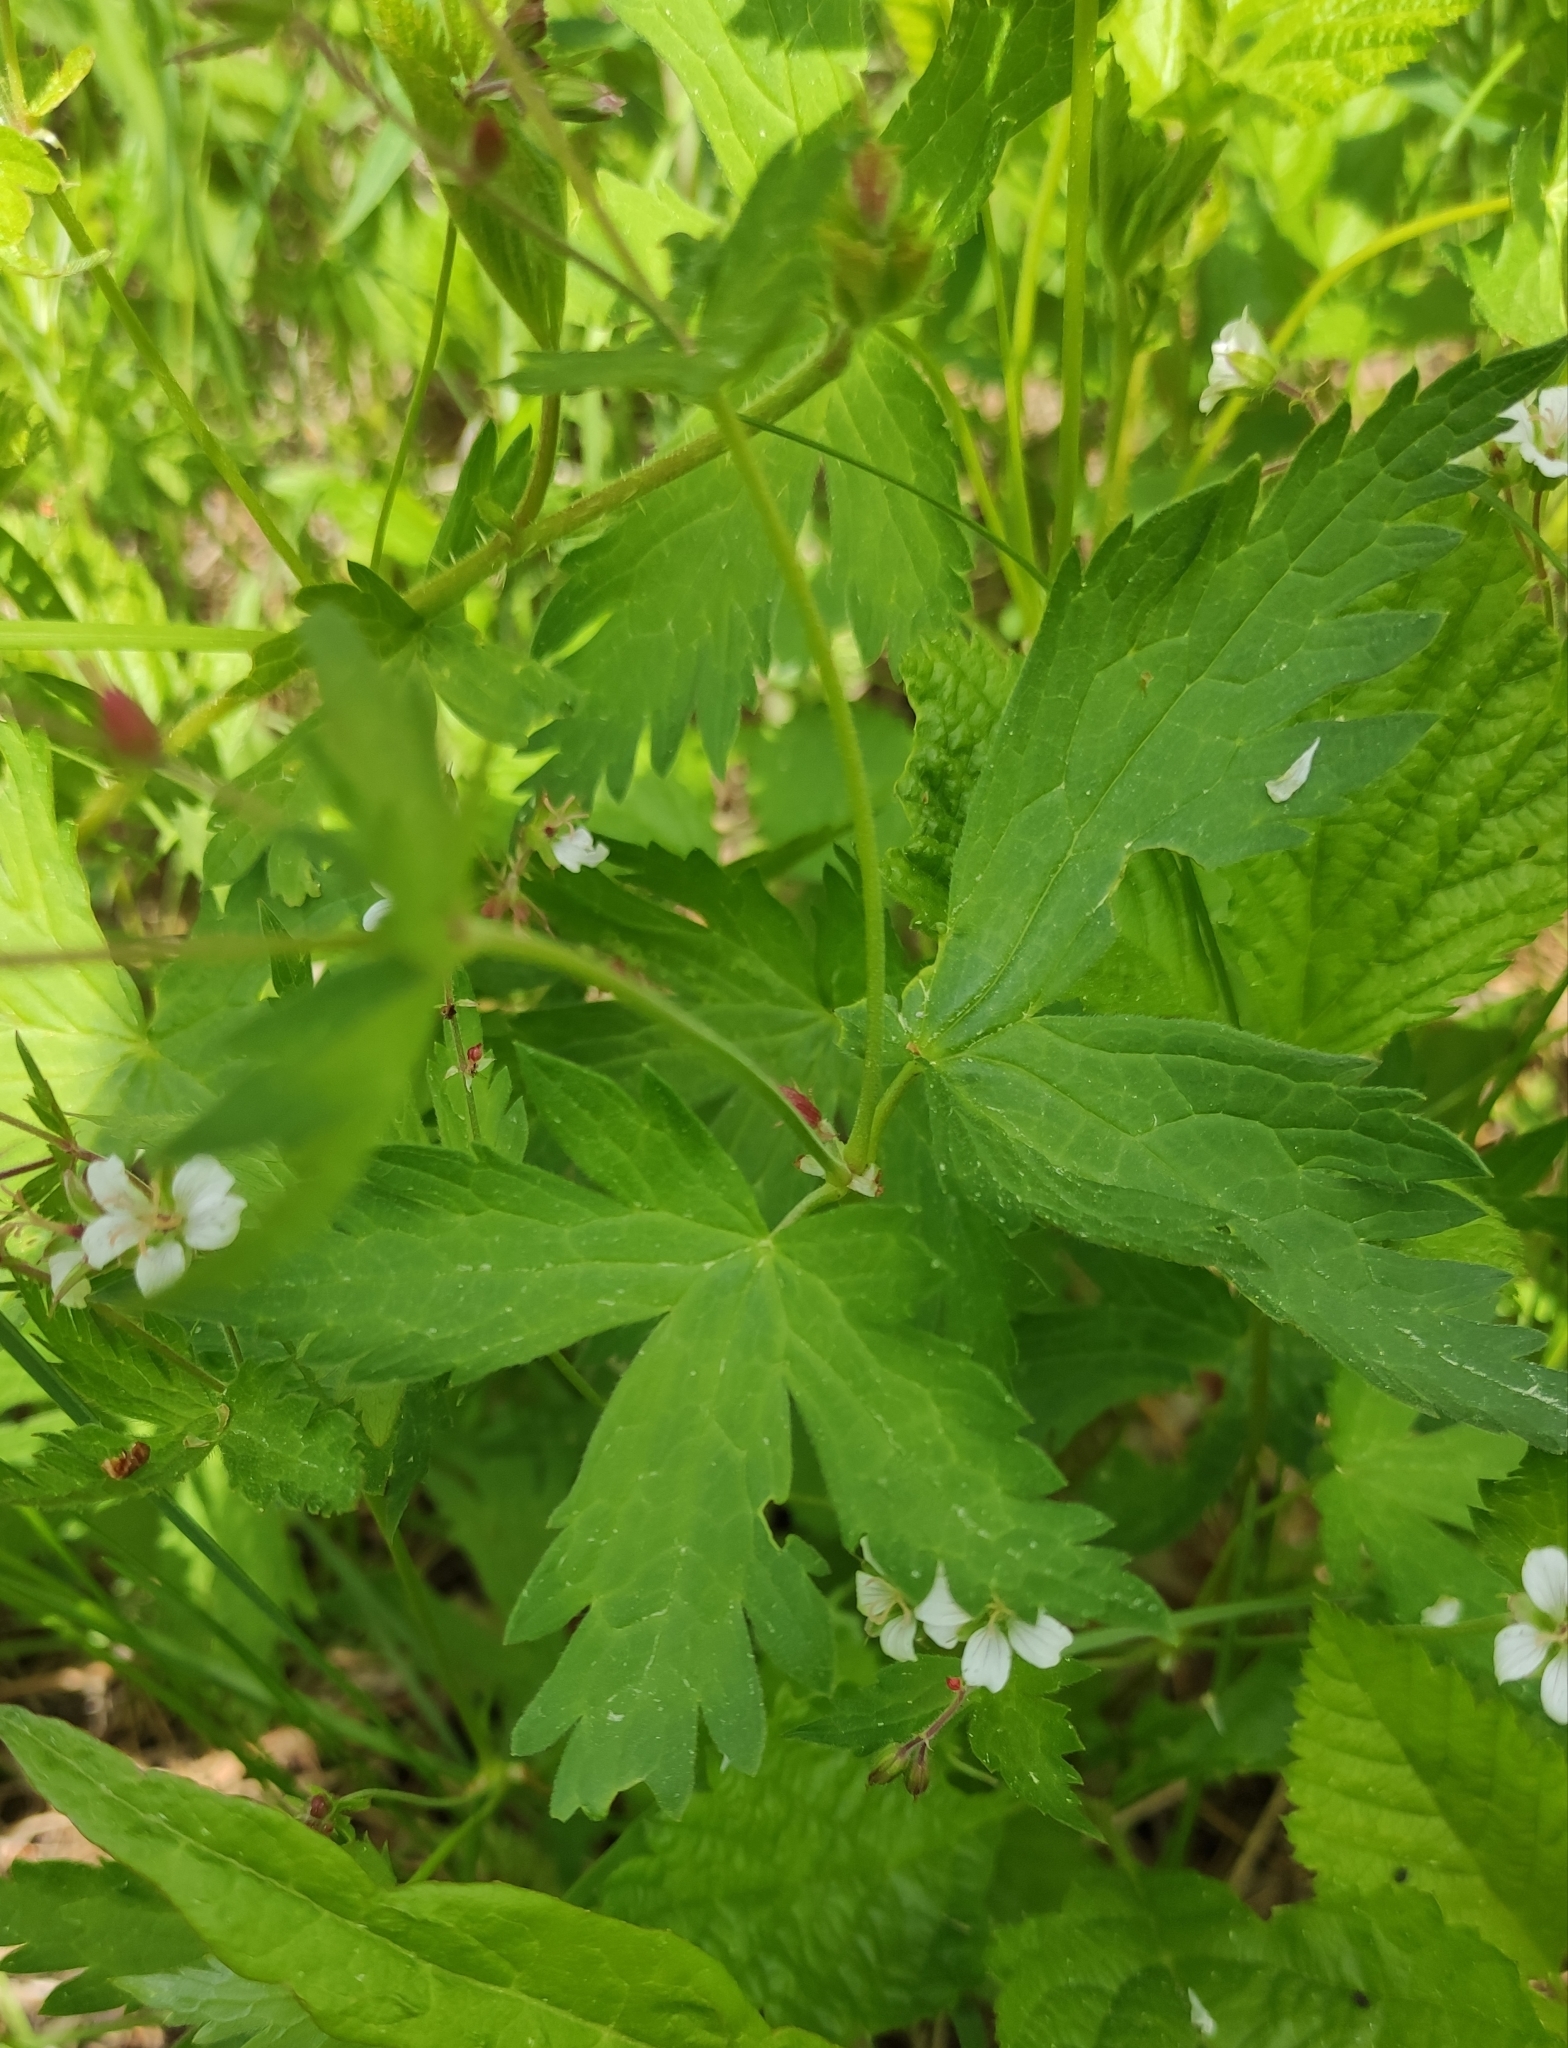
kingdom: Plantae
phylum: Tracheophyta
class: Magnoliopsida
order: Geraniales
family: Geraniaceae
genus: Geranium
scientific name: Geranium sylvaticum
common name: Wood crane's-bill
